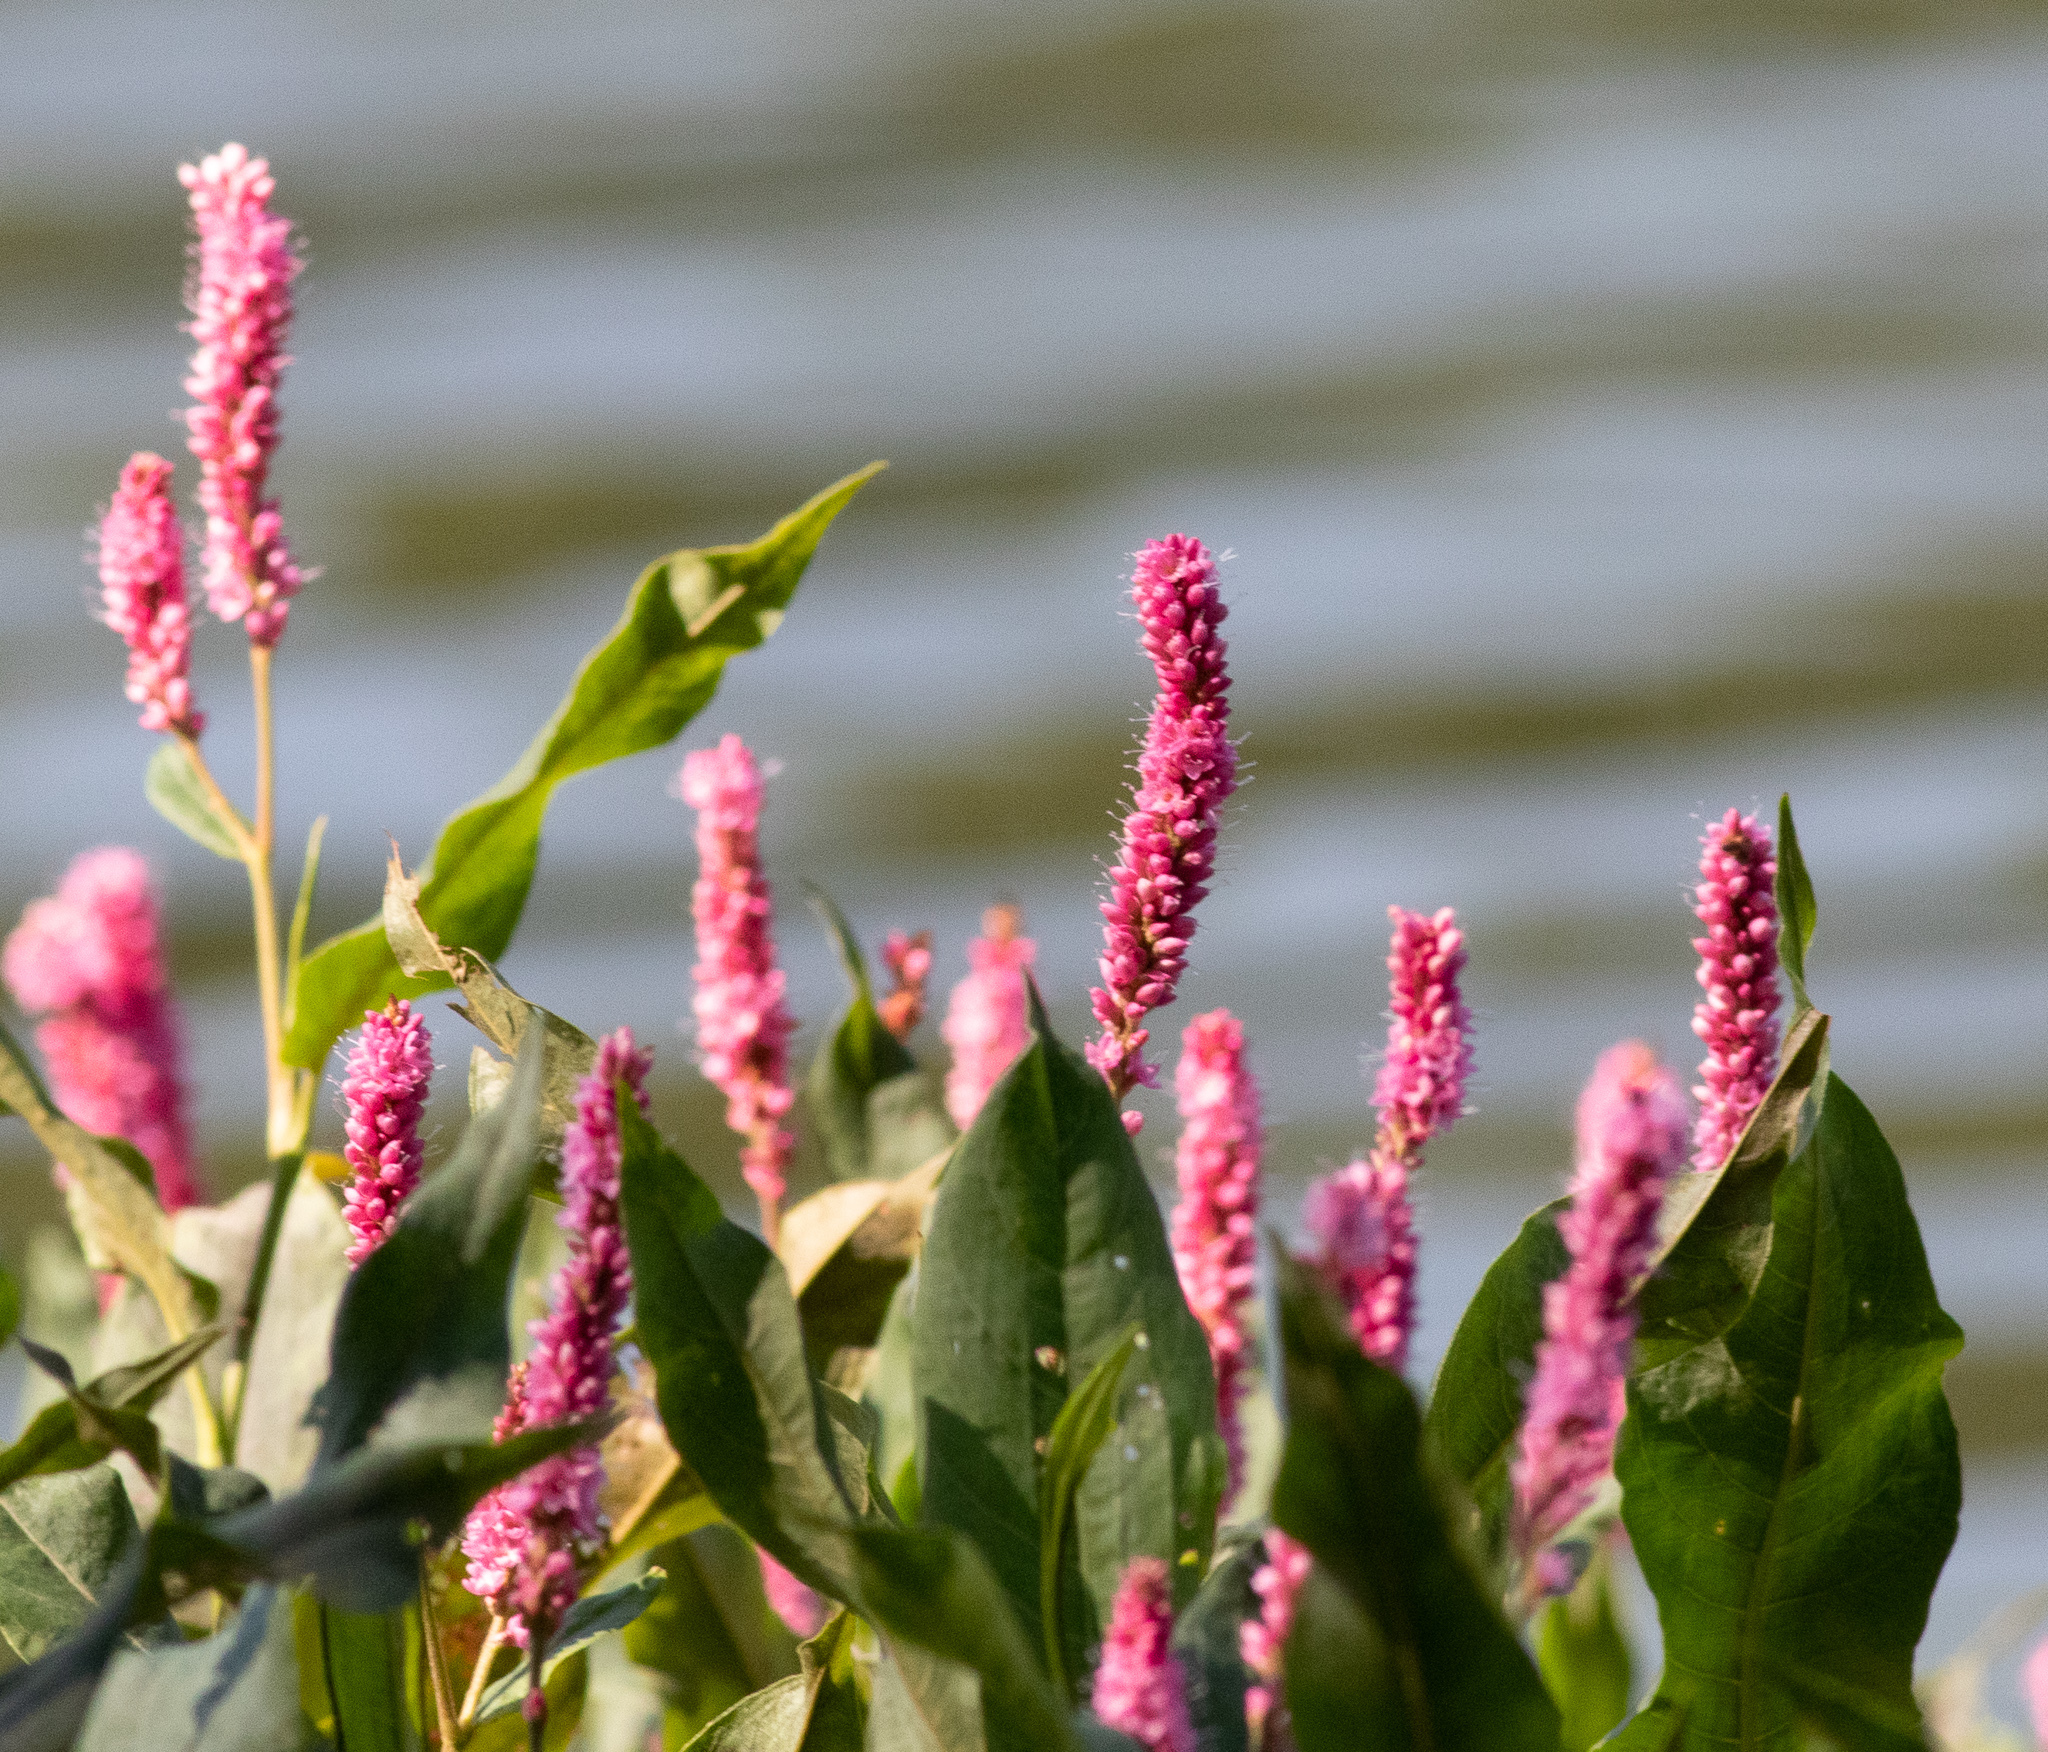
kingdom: Plantae
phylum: Tracheophyta
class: Magnoliopsida
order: Caryophyllales
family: Polygonaceae
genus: Persicaria
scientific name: Persicaria amphibia
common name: Amphibious bistort
